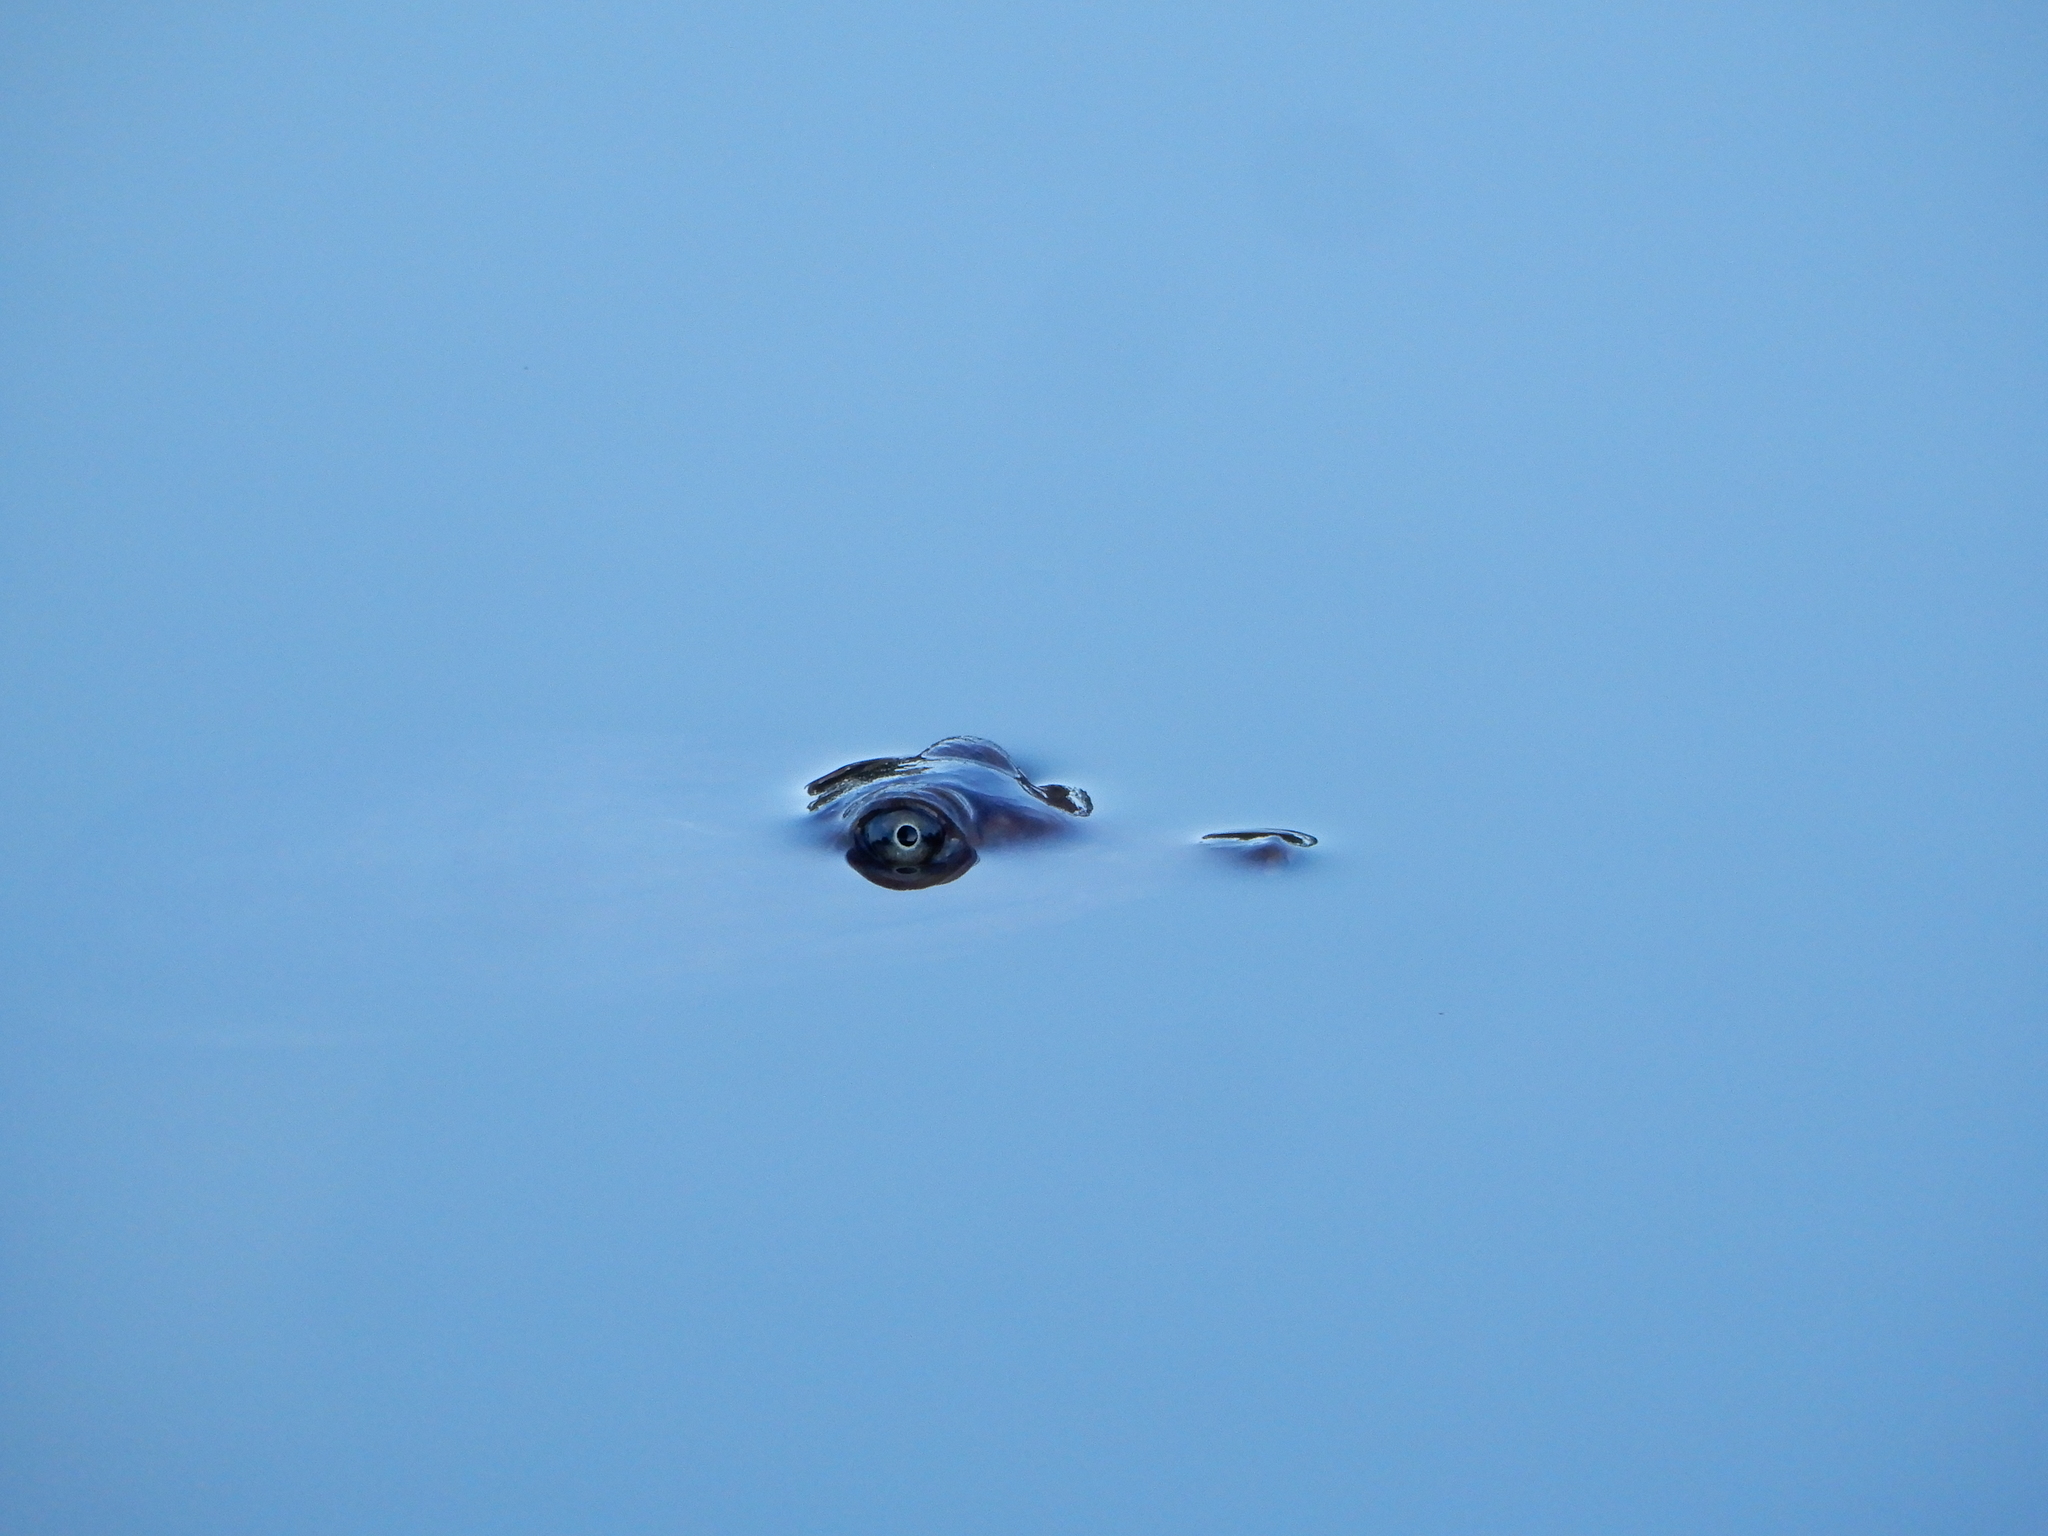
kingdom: Animalia
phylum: Chordata
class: Testudines
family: Trionychidae
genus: Apalone
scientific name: Apalone ferox
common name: Florida softshell turtle
